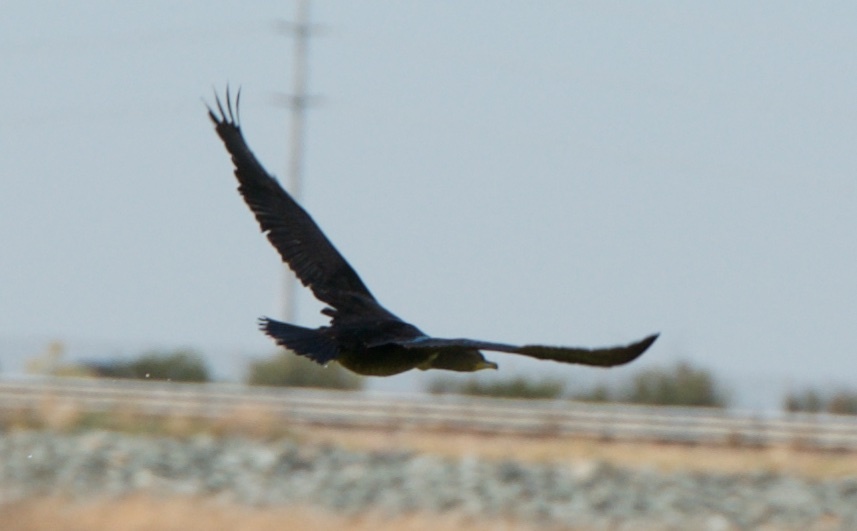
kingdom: Animalia
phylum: Chordata
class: Aves
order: Suliformes
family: Phalacrocoracidae
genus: Phalacrocorax
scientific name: Phalacrocorax auritus
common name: Double-crested cormorant
